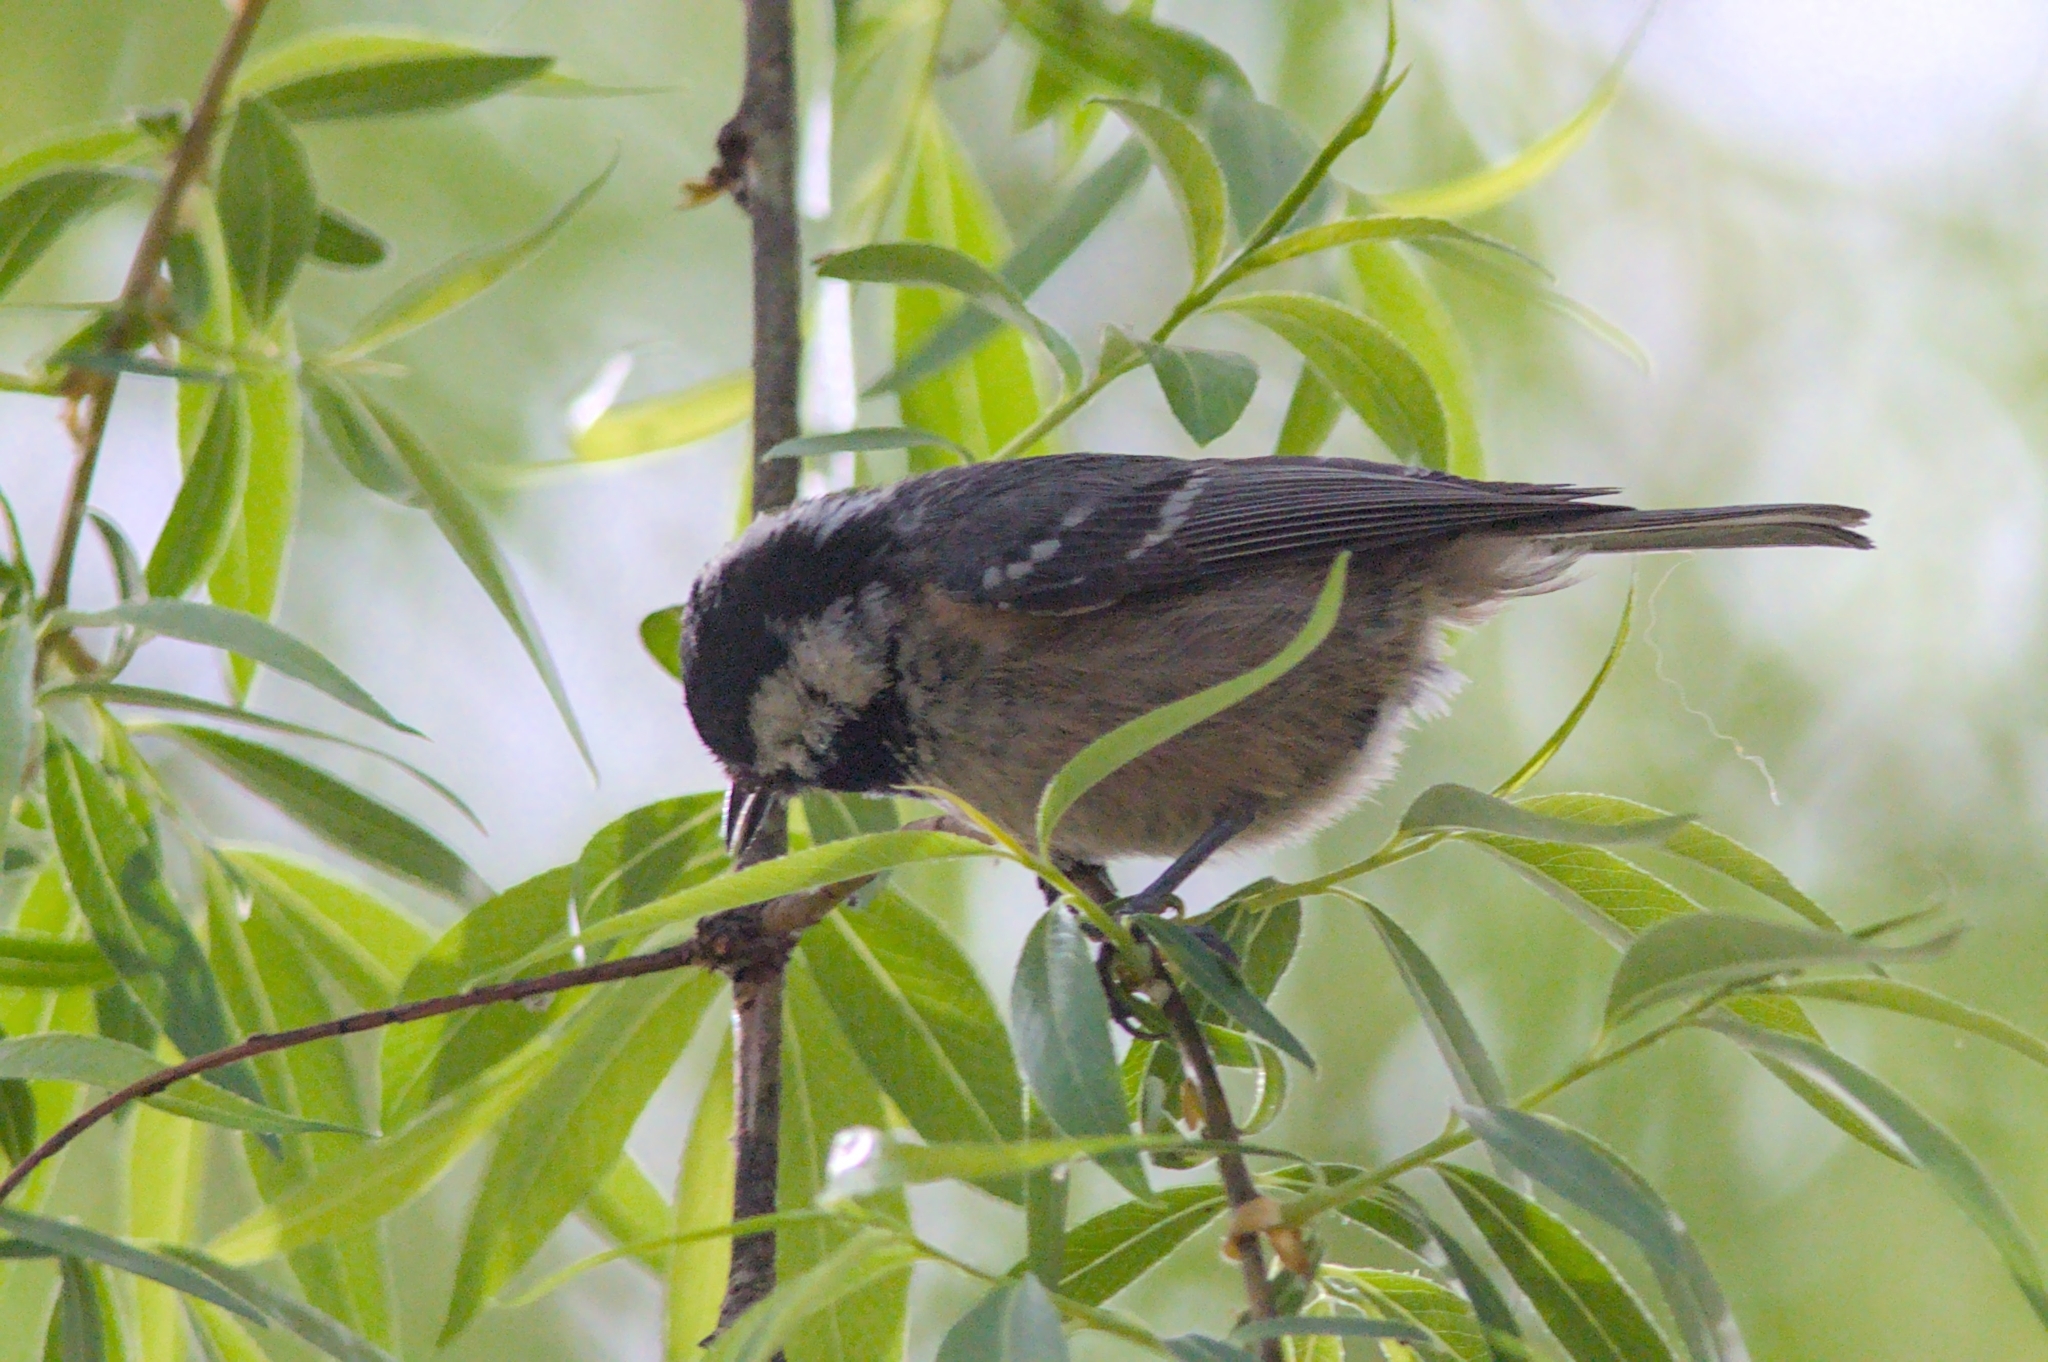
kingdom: Animalia
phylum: Chordata
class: Aves
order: Passeriformes
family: Paridae
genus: Periparus
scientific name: Periparus ater
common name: Coal tit
